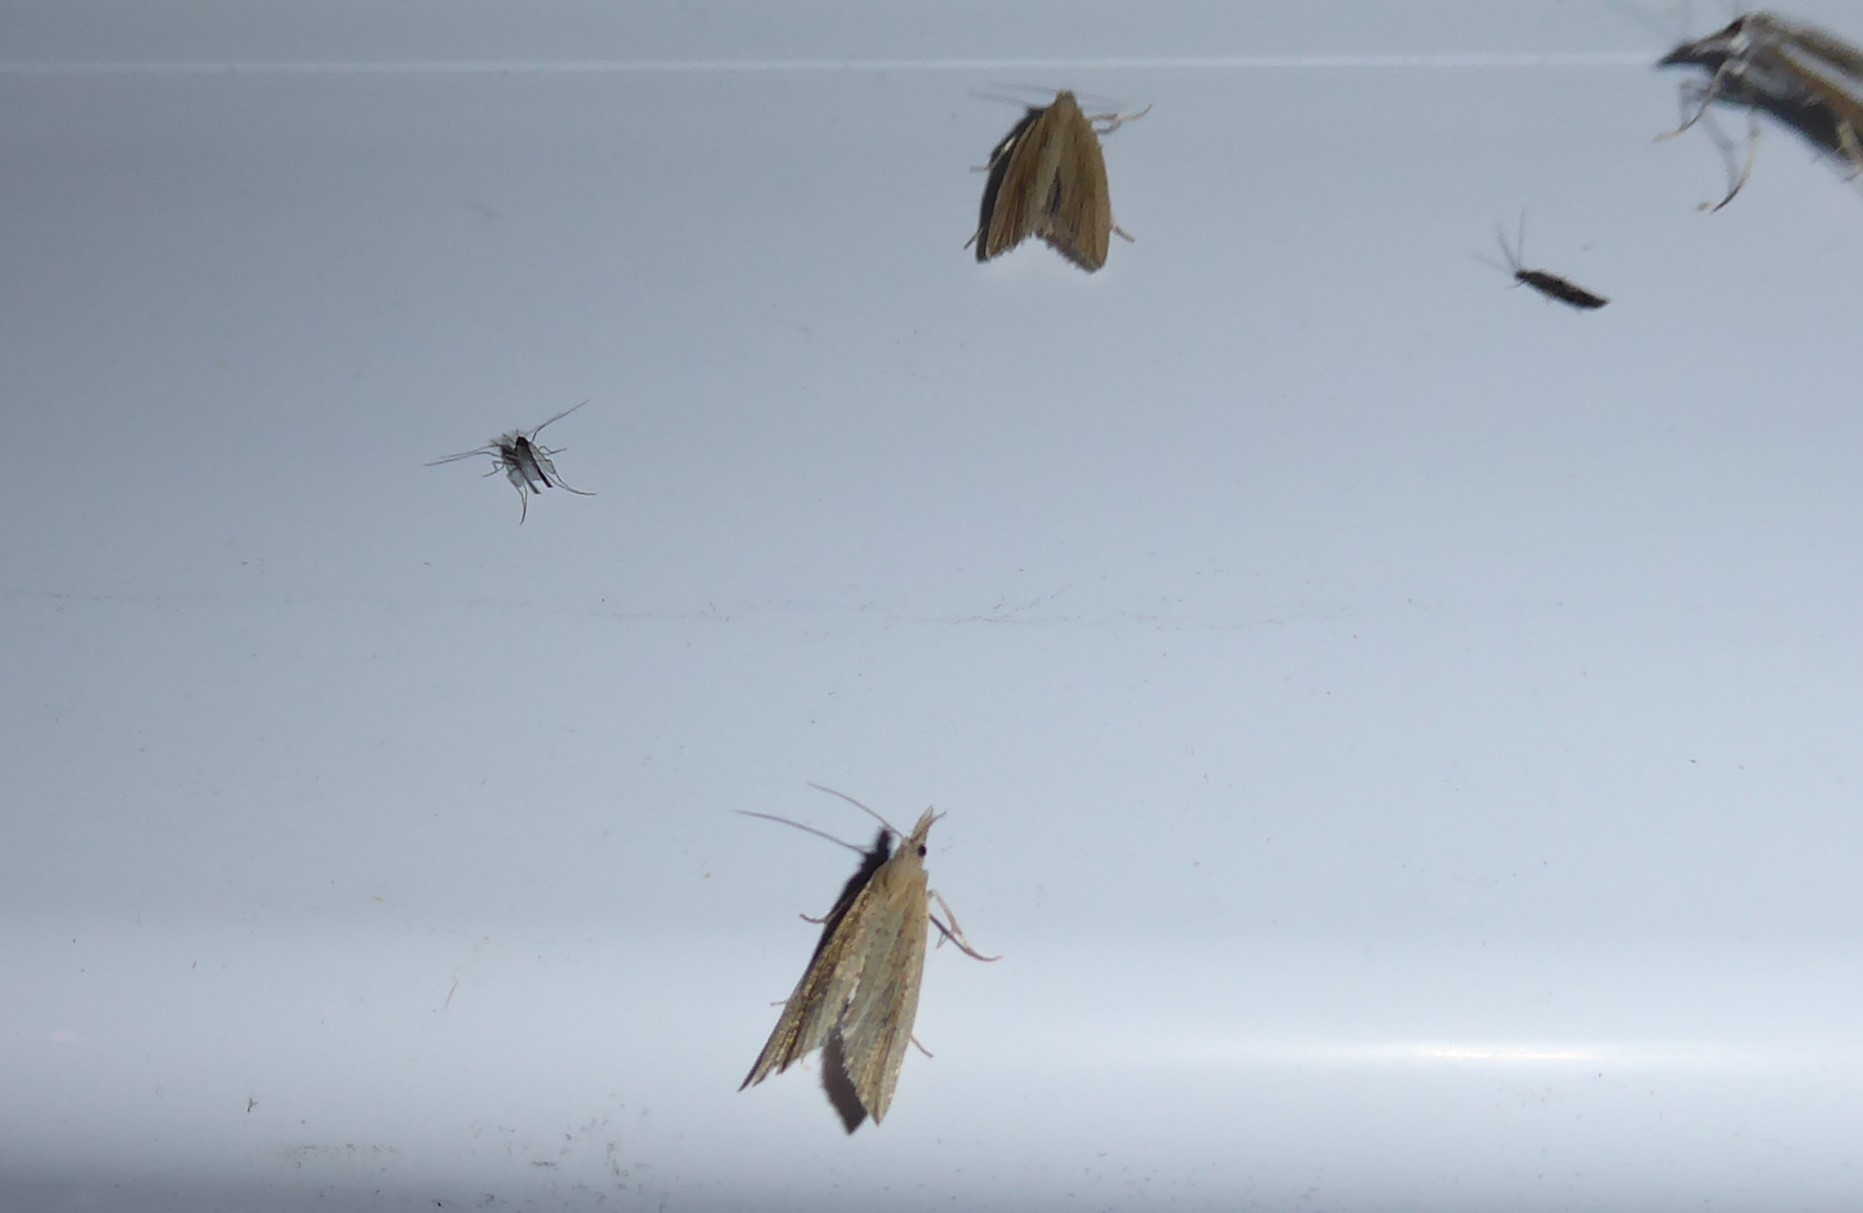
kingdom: Animalia
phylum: Arthropoda
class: Insecta
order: Lepidoptera
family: Tortricidae
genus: Bactra
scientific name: Bactra noteraula
